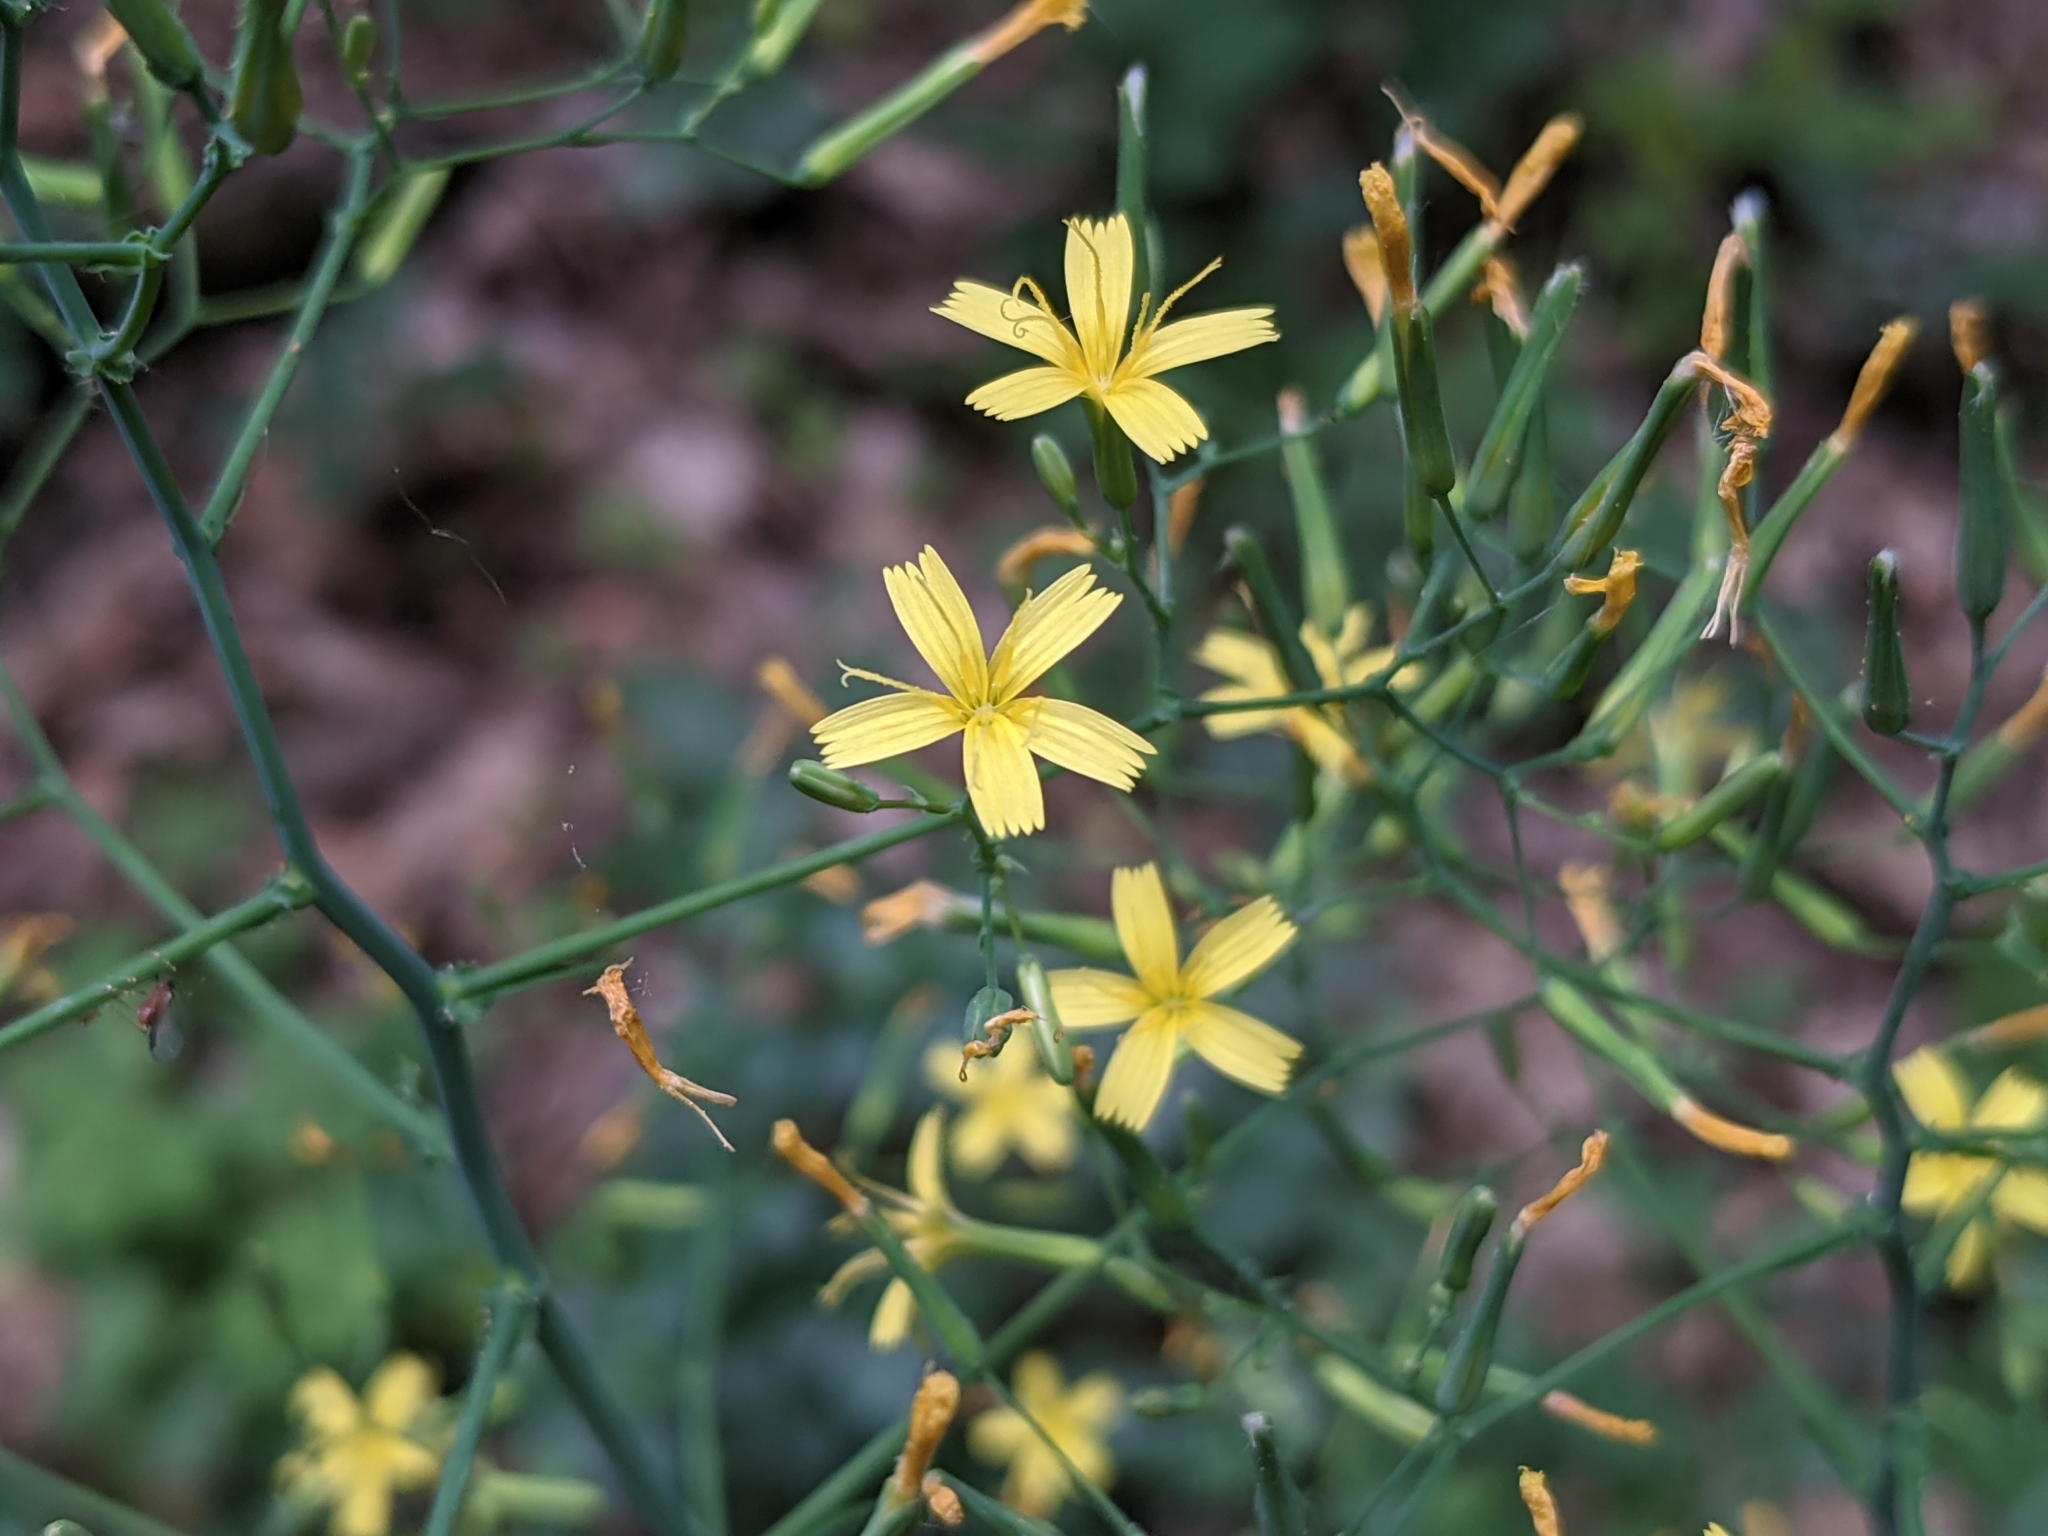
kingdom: Plantae
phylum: Tracheophyta
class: Magnoliopsida
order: Asterales
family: Asteraceae
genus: Mycelis
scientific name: Mycelis muralis
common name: Wall lettuce
